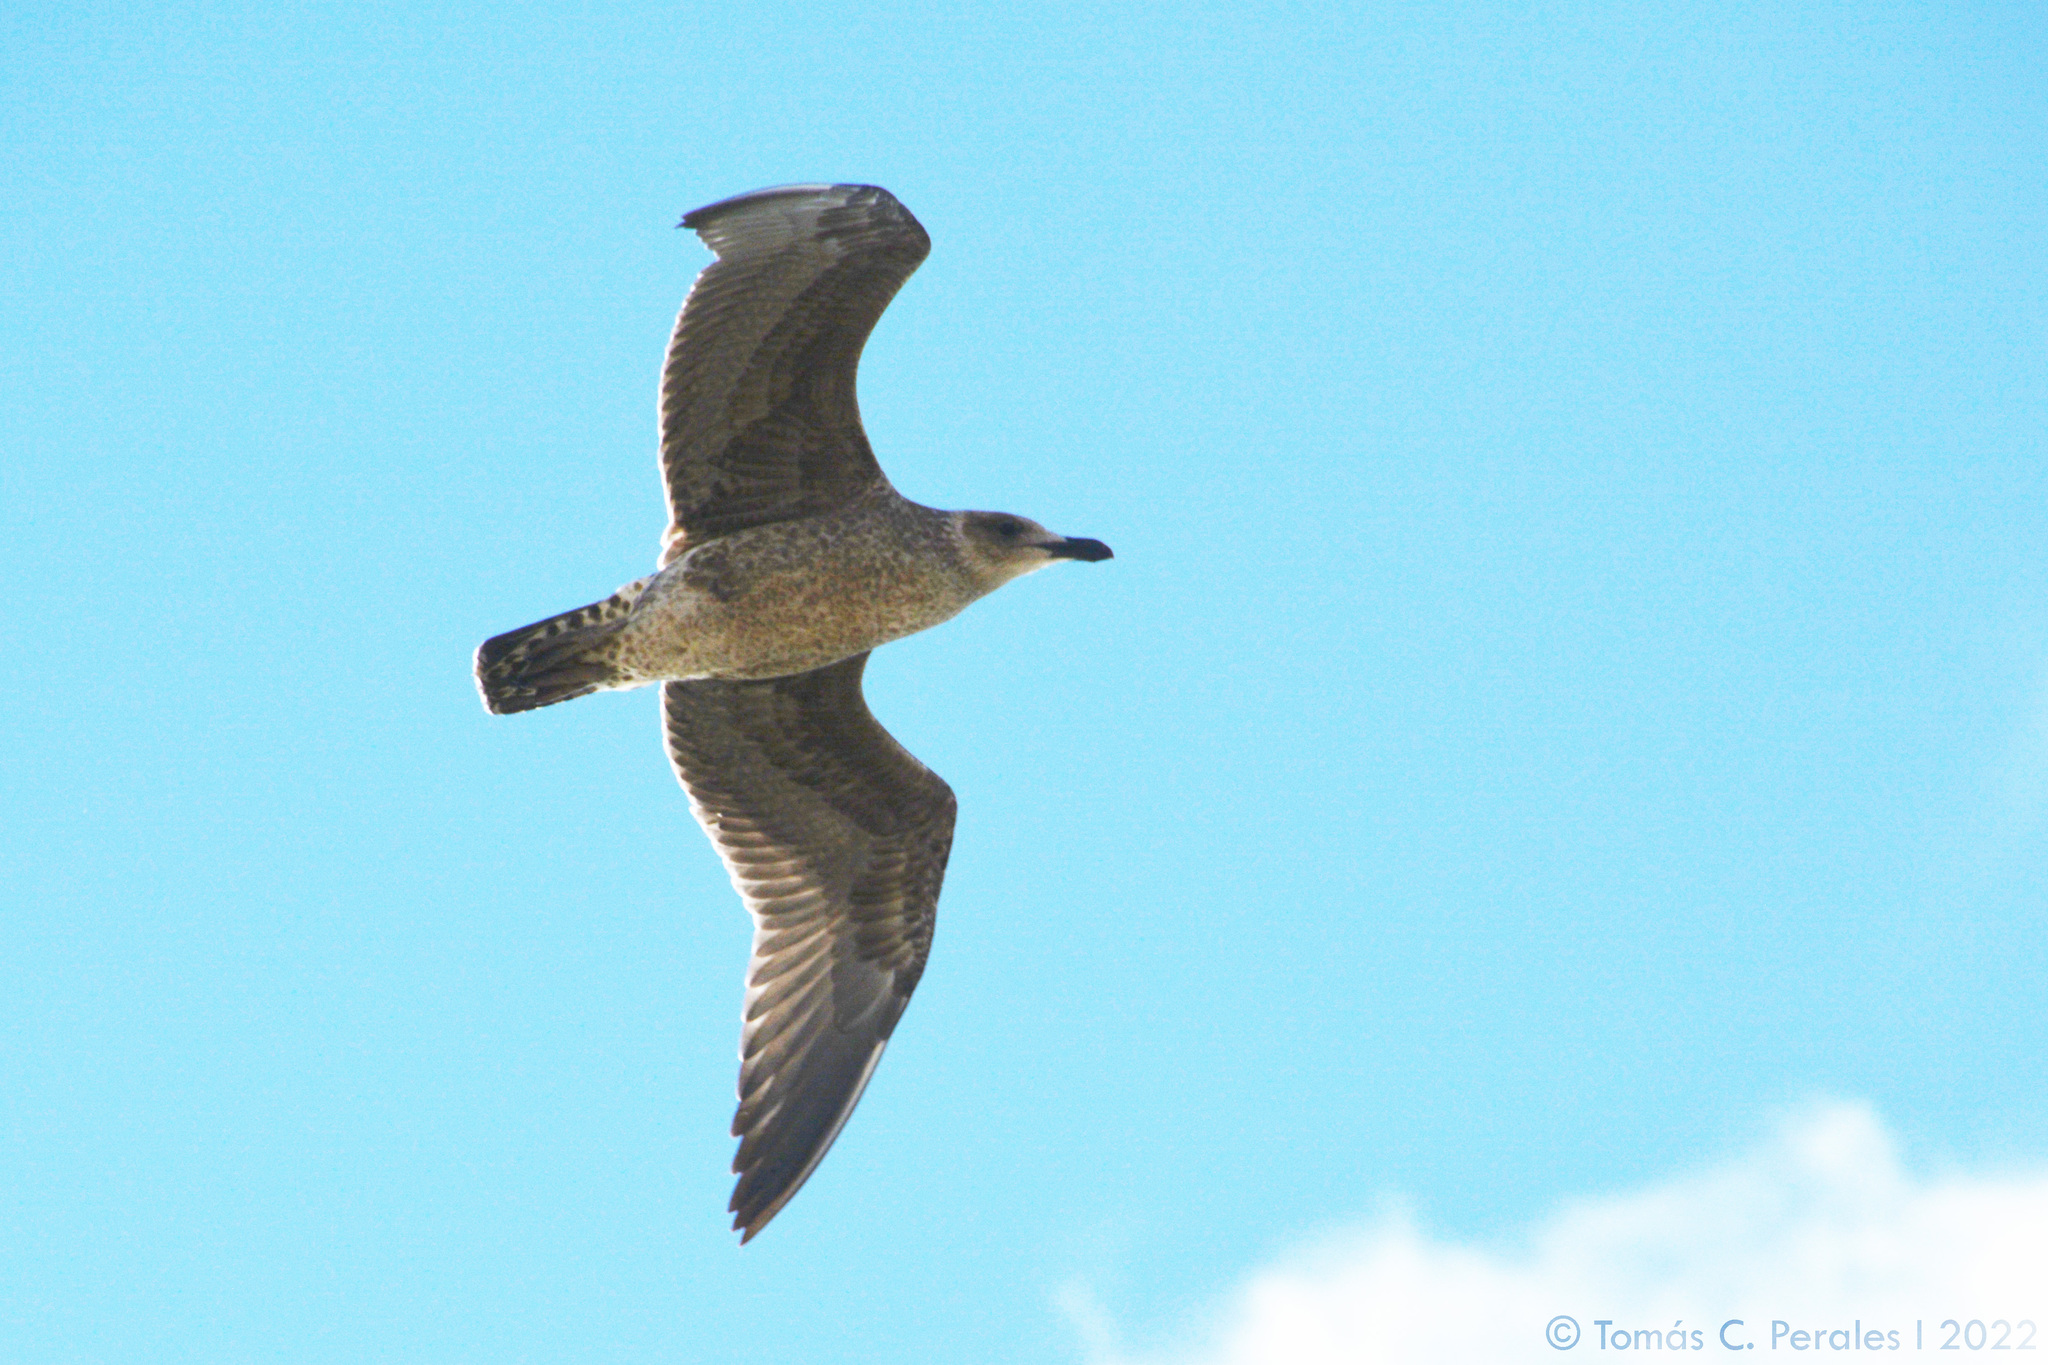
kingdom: Animalia
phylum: Chordata
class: Aves
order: Charadriiformes
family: Laridae
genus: Larus
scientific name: Larus dominicanus
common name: Kelp gull
